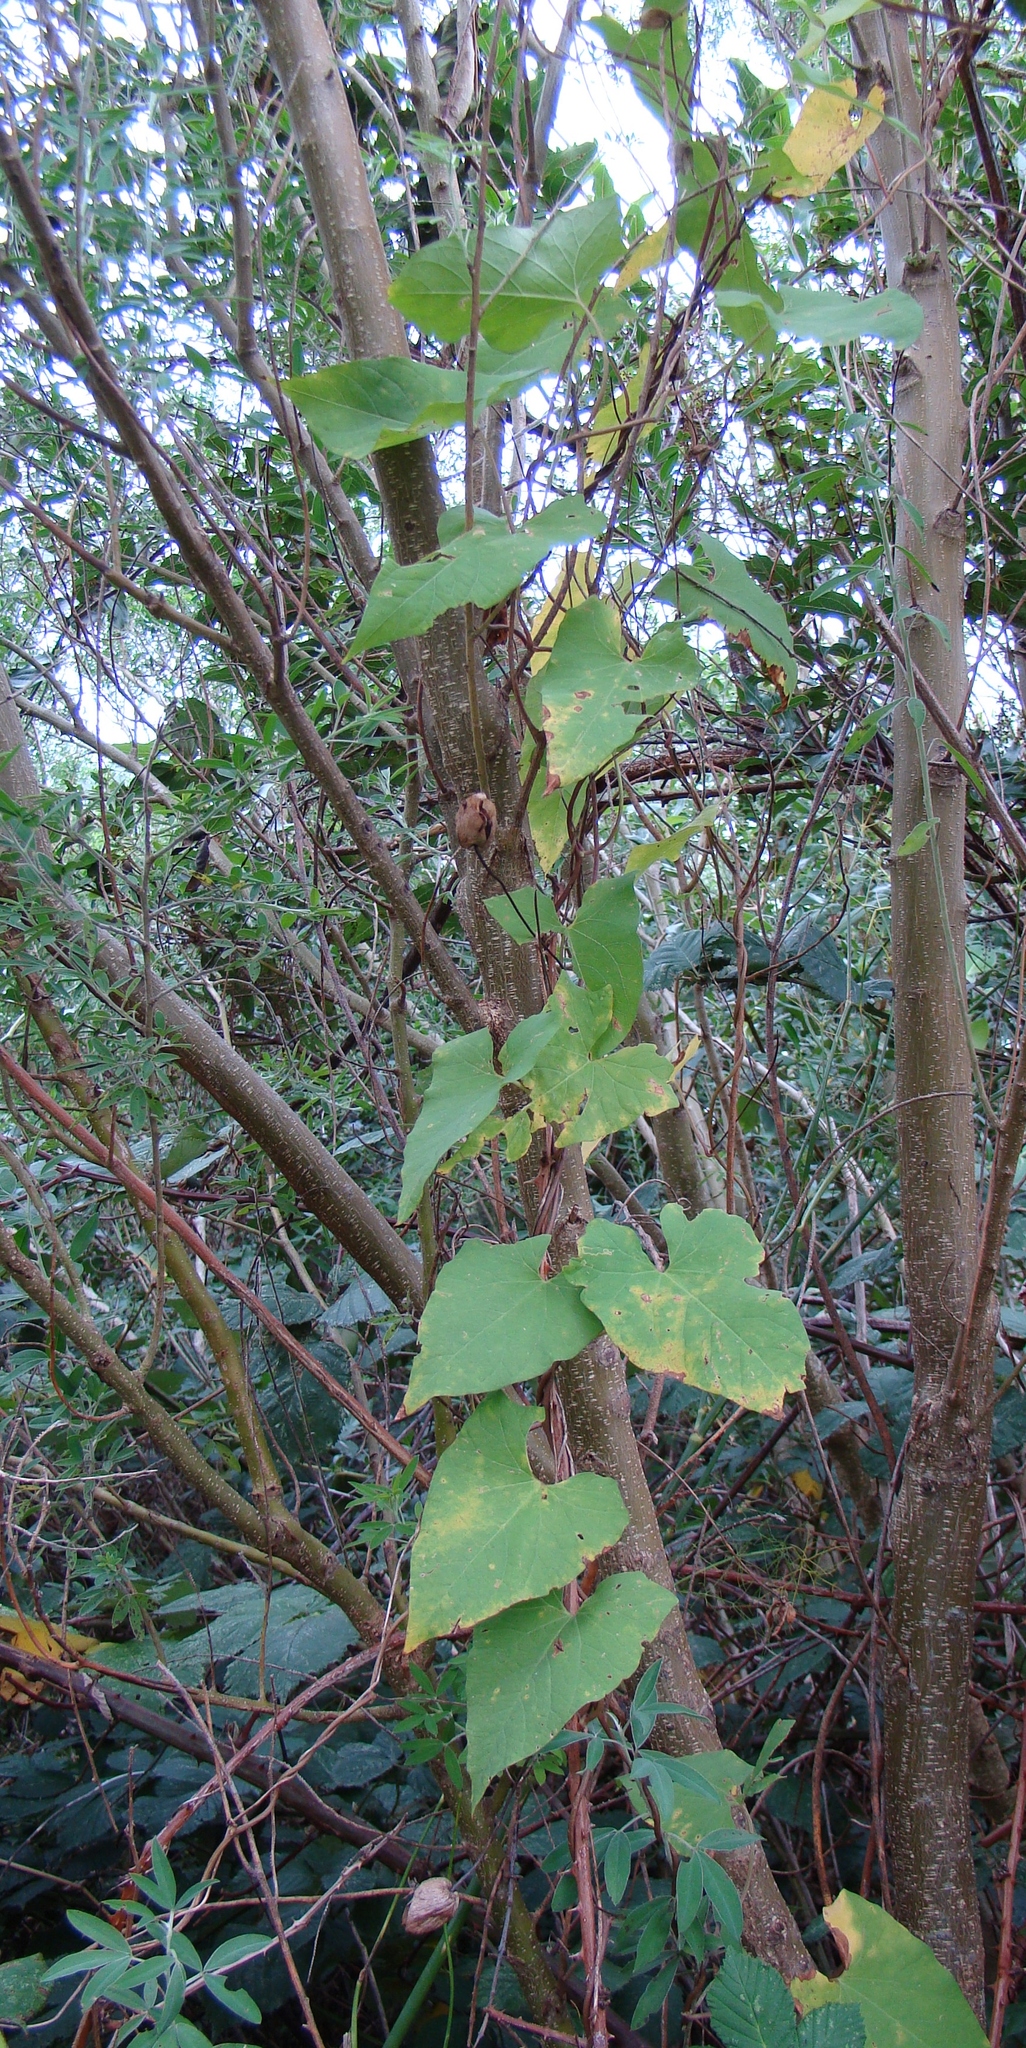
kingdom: Plantae
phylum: Tracheophyta
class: Magnoliopsida
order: Solanales
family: Convolvulaceae
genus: Calystegia
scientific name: Calystegia silvatica
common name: Large bindweed
